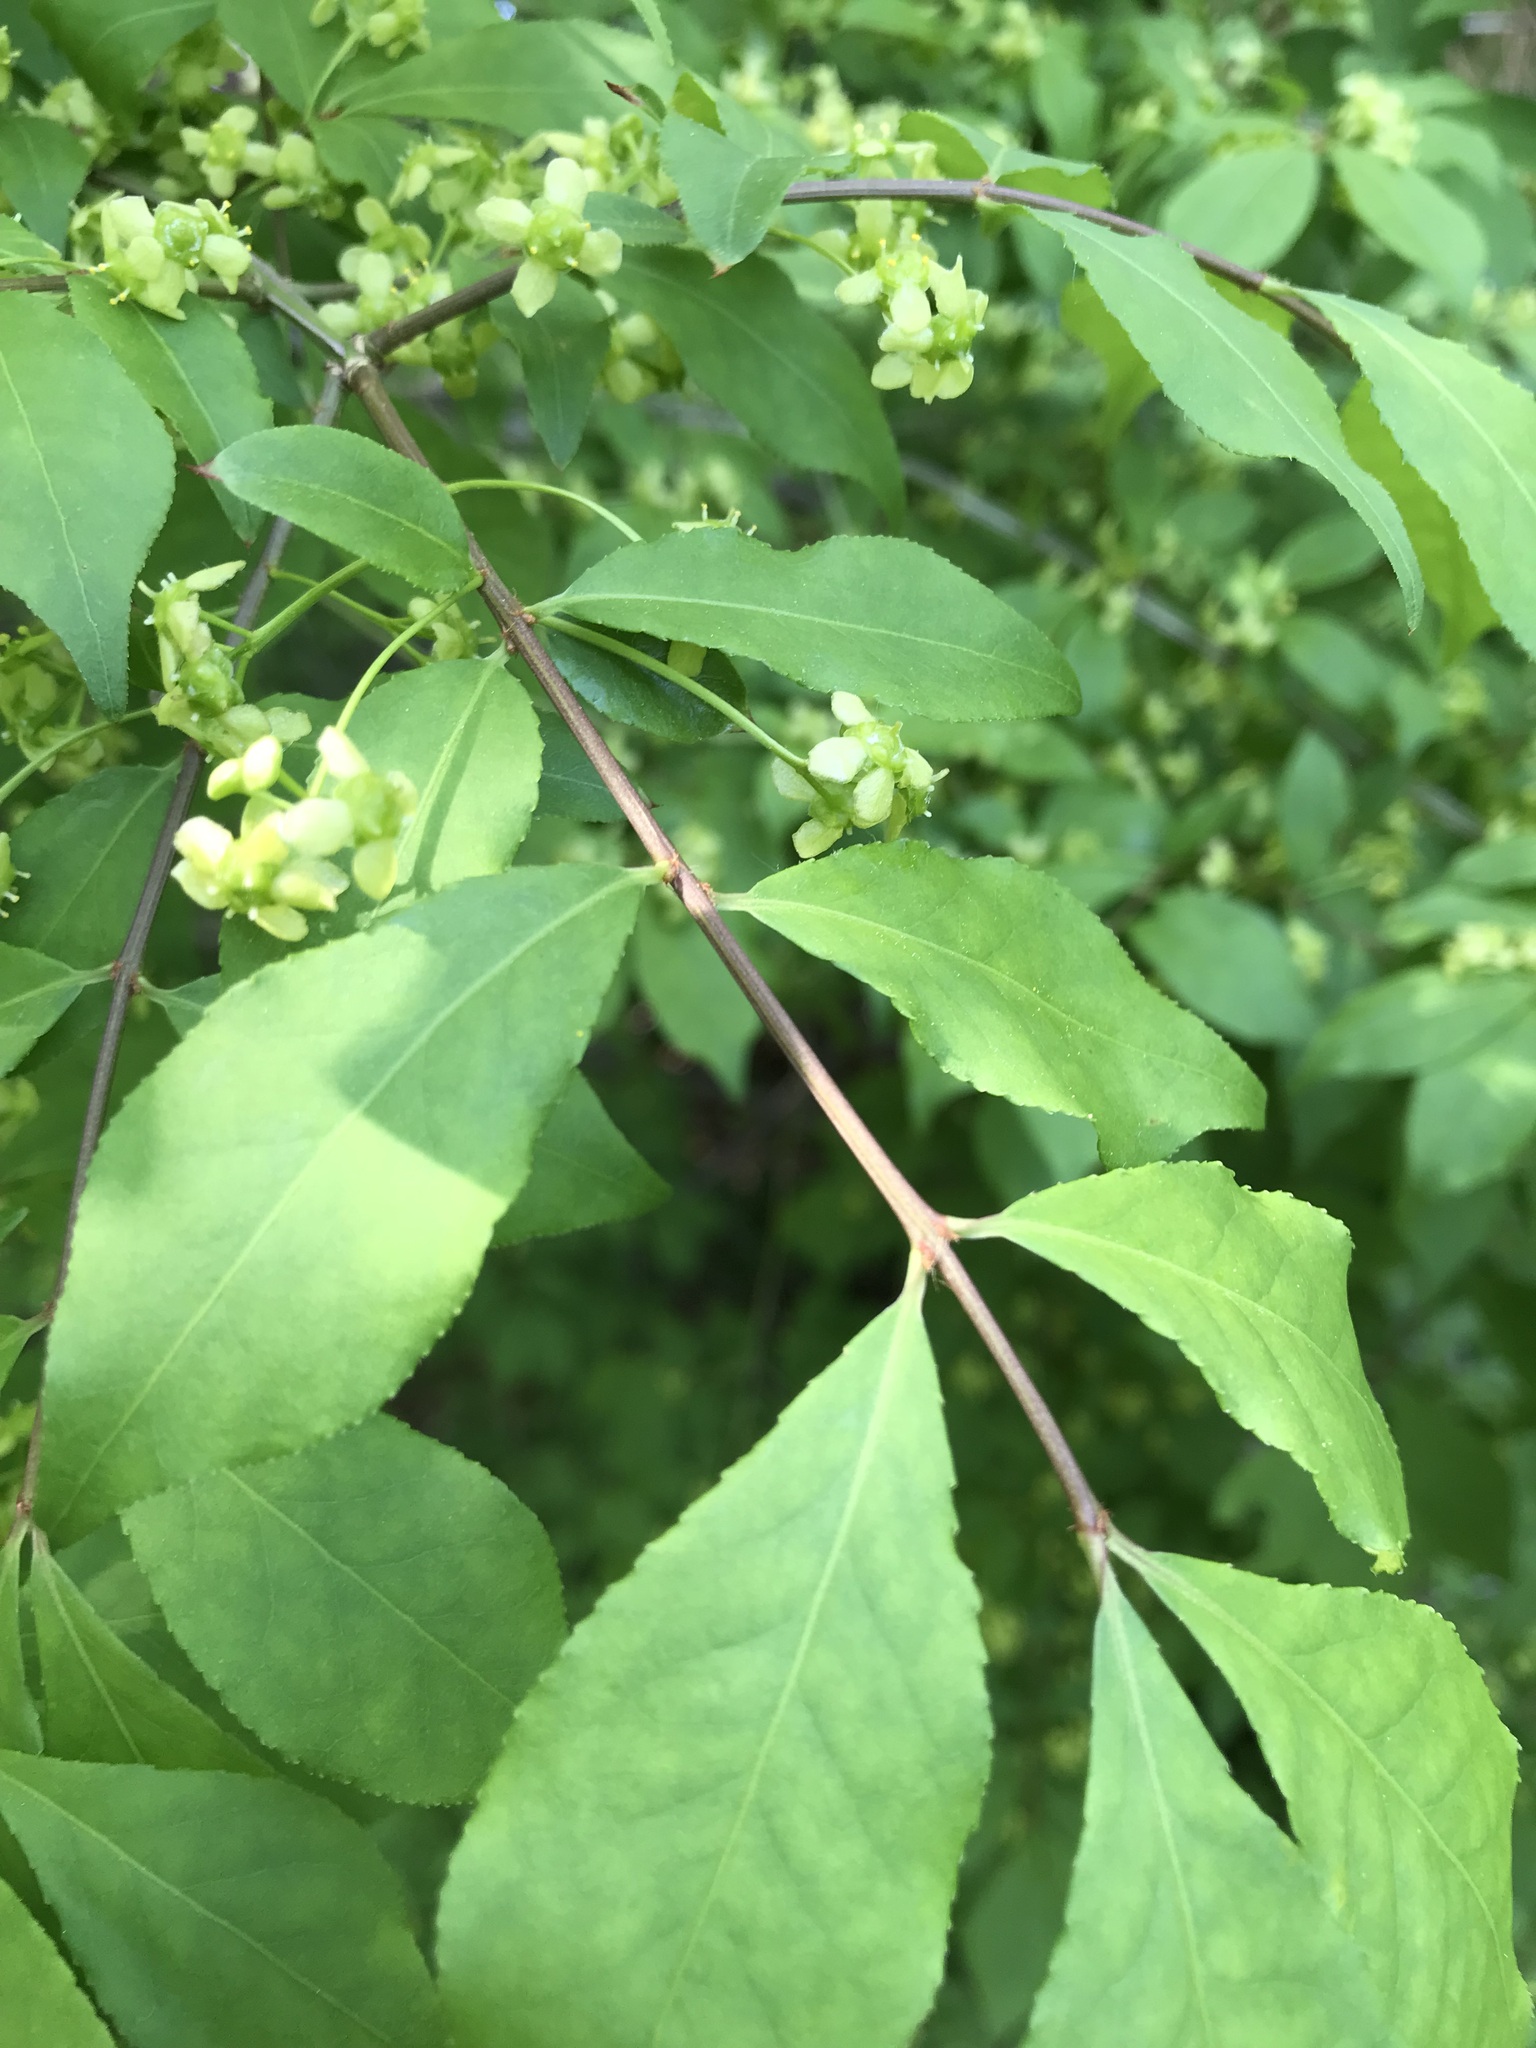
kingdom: Plantae
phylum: Tracheophyta
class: Magnoliopsida
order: Celastrales
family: Celastraceae
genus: Euonymus
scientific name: Euonymus alatus
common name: Winged euonymus
